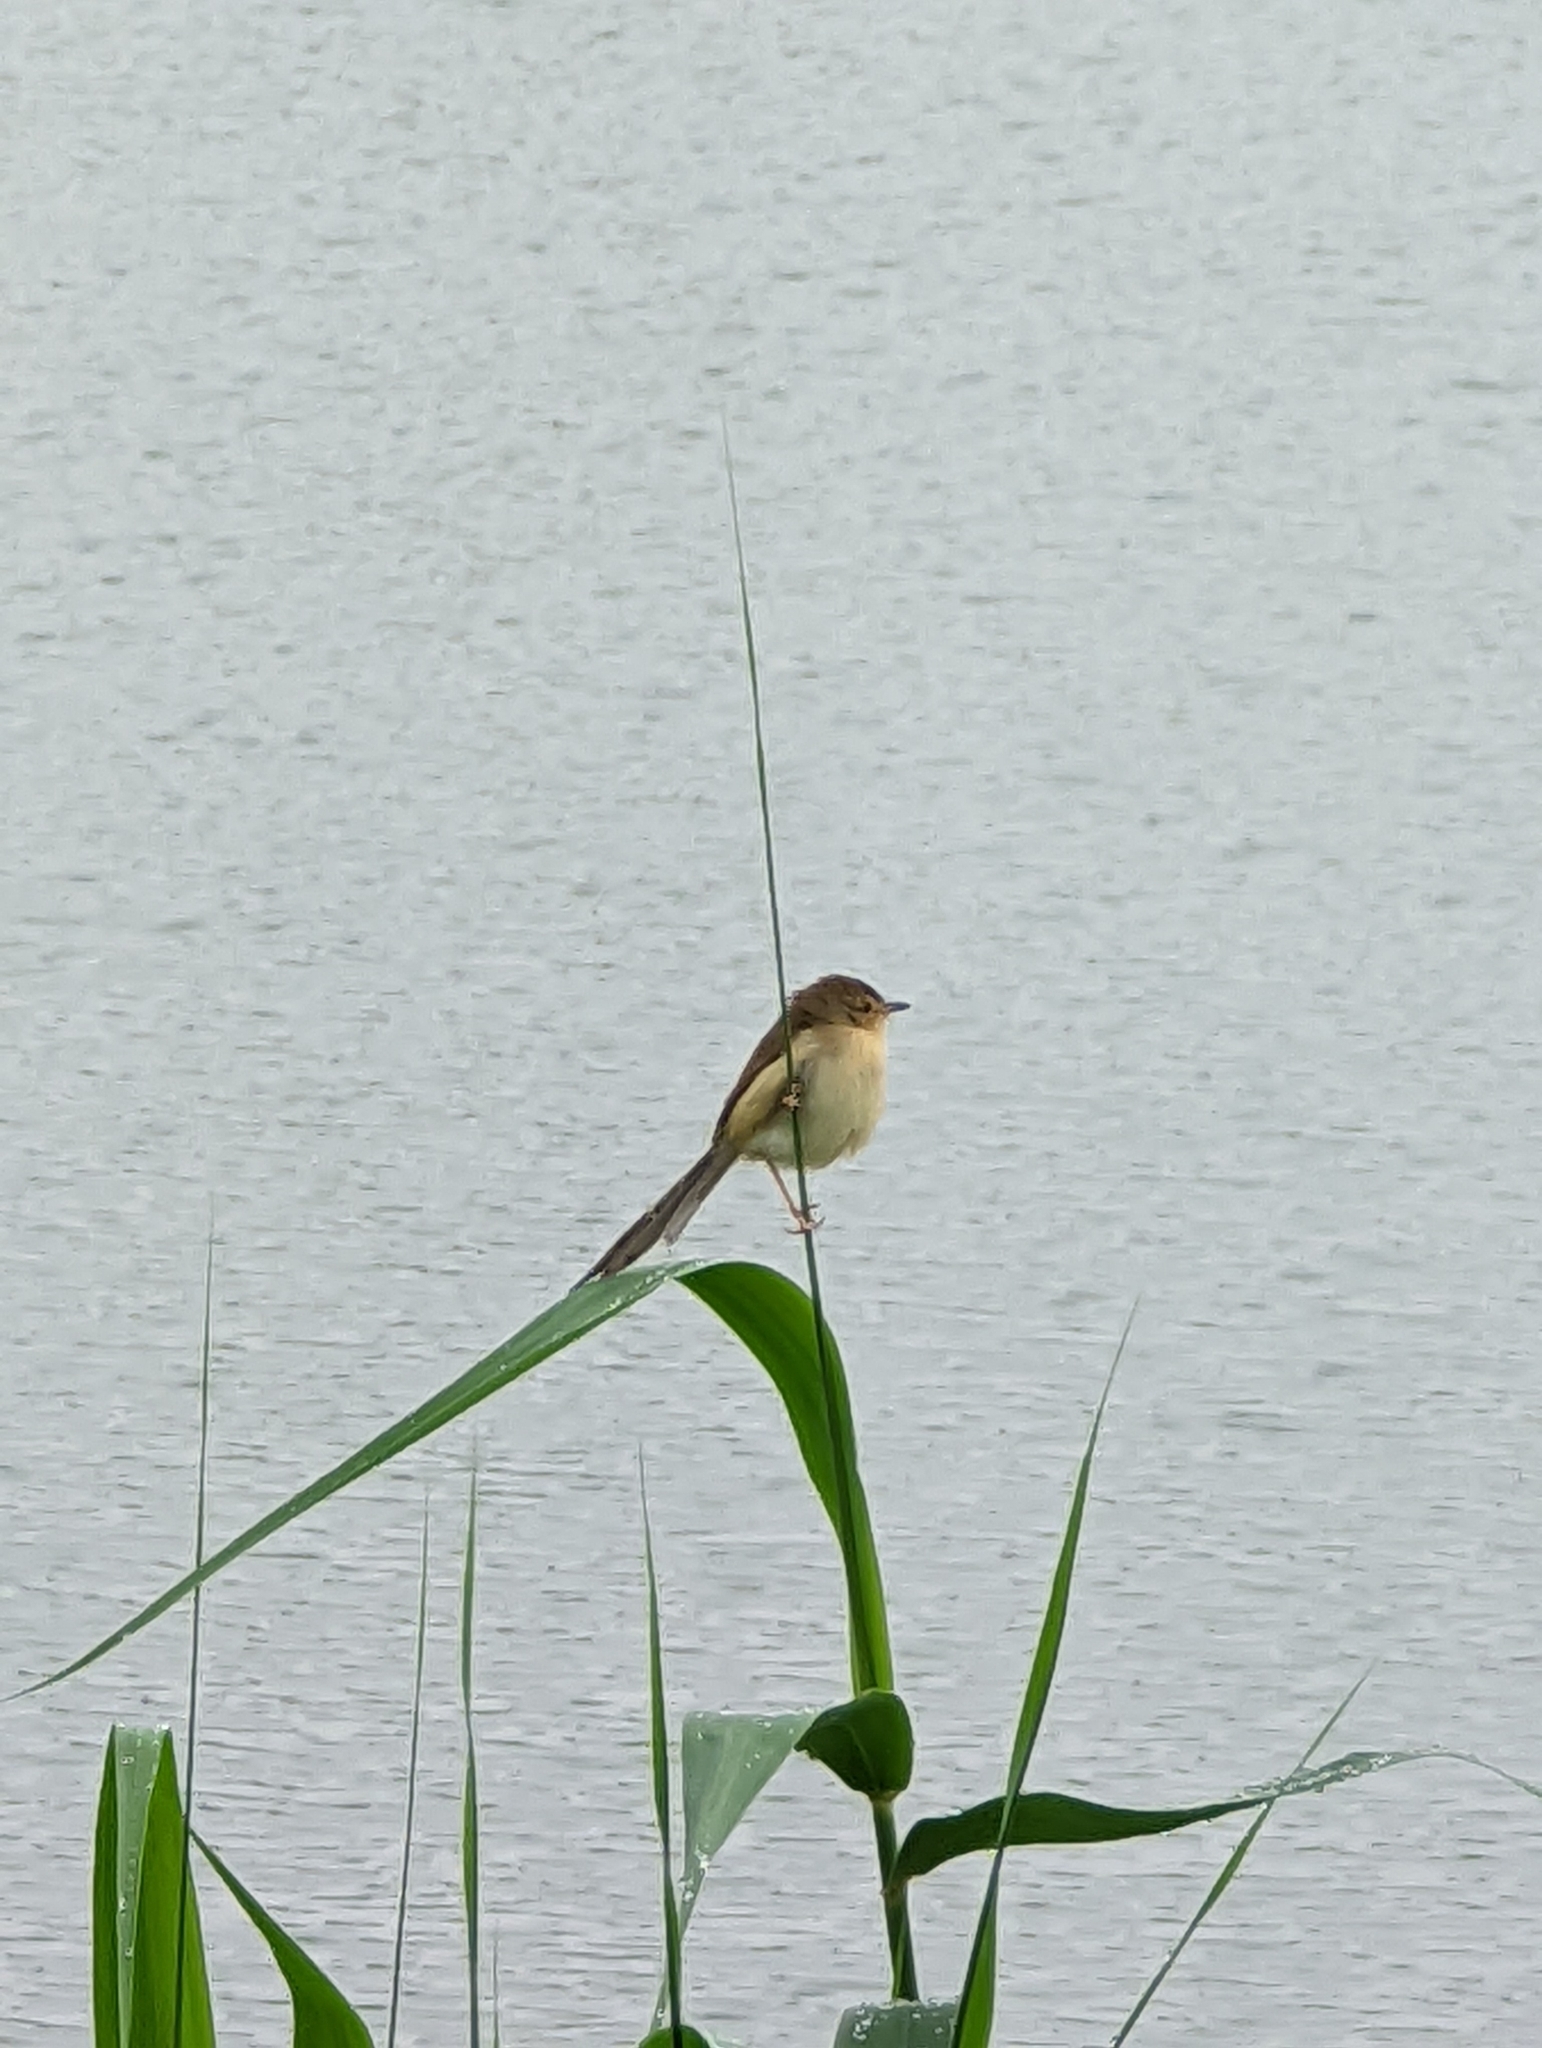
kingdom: Animalia
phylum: Chordata
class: Aves
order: Passeriformes
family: Cisticolidae
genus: Prinia
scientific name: Prinia inornata
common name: Plain prinia
